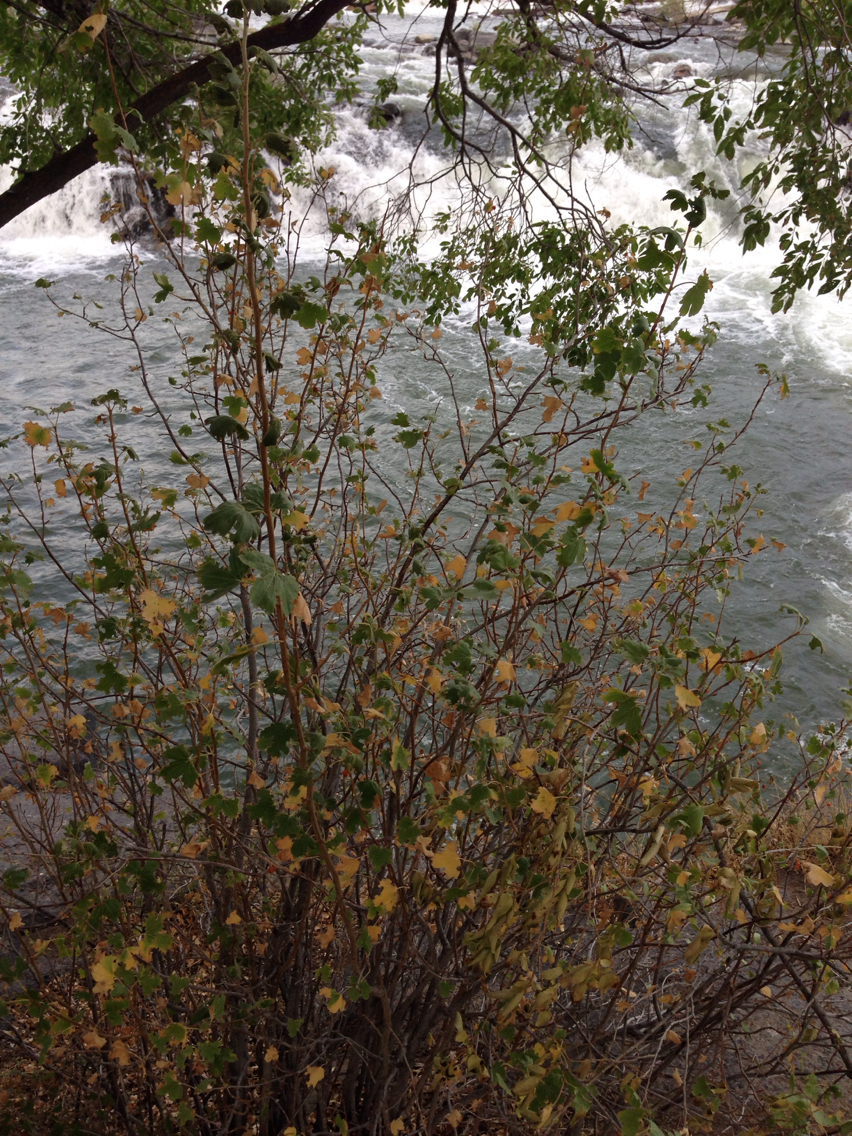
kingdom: Plantae
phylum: Tracheophyta
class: Magnoliopsida
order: Saxifragales
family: Grossulariaceae
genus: Ribes
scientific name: Ribes aureum
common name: Golden currant
